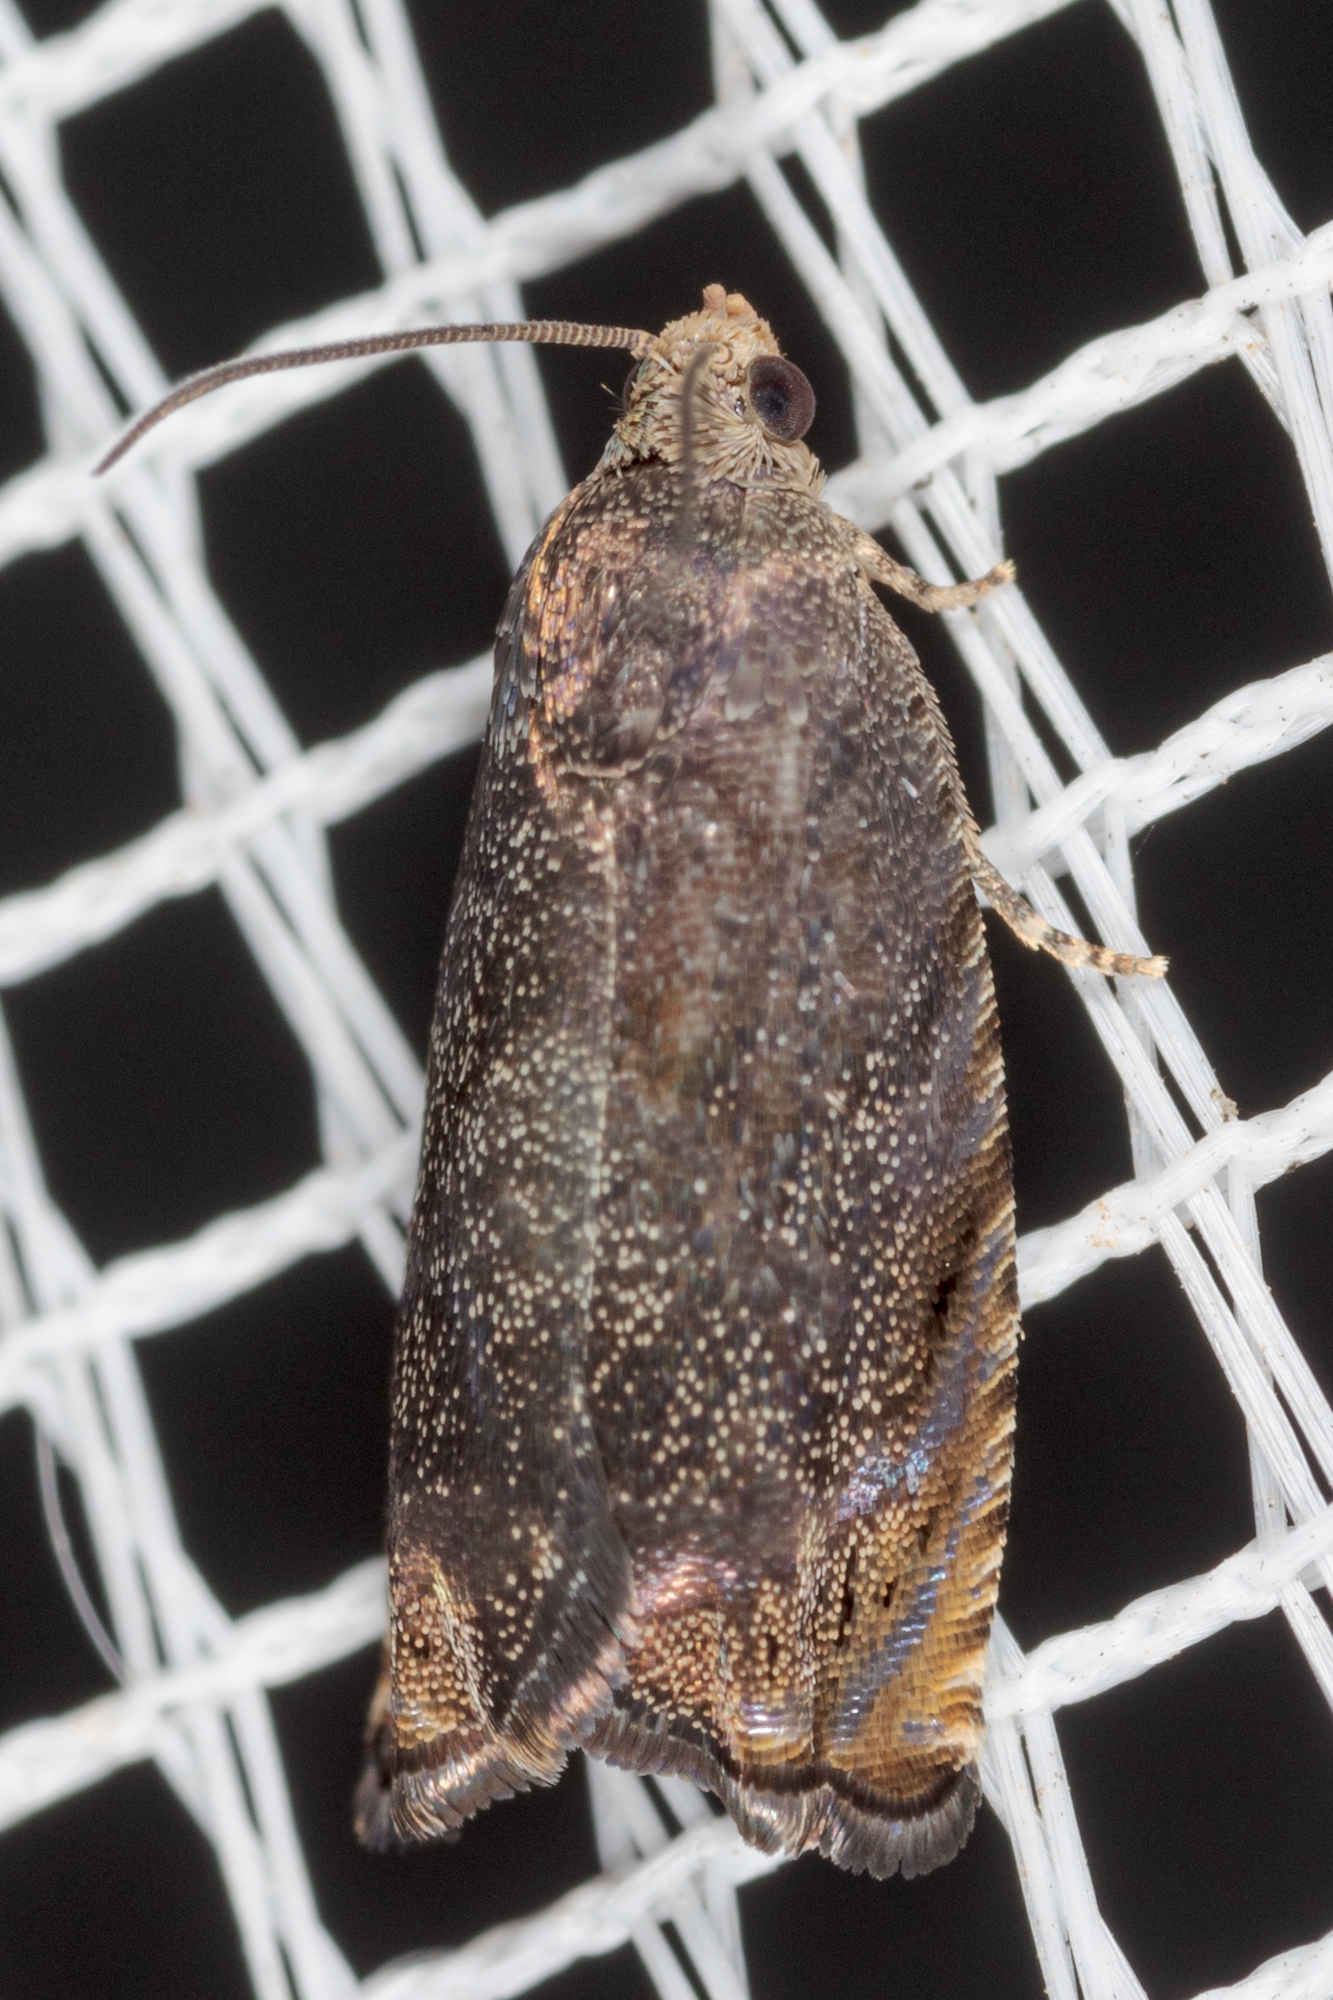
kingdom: Animalia
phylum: Arthropoda
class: Insecta
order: Lepidoptera
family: Tortricidae
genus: Cydia
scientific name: Cydia caryana
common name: Hickory shuckworm moth
